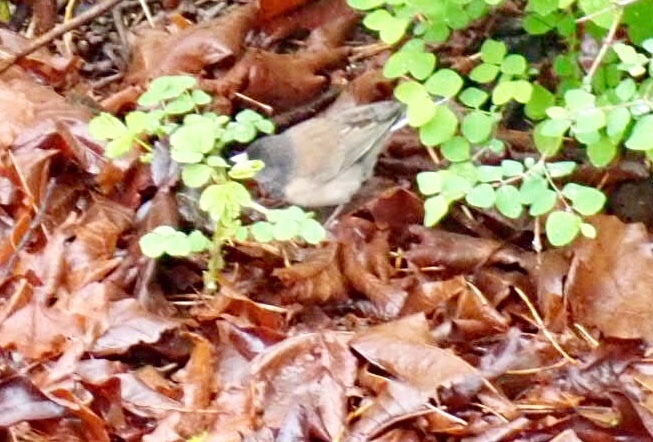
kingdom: Animalia
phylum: Chordata
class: Aves
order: Passeriformes
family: Passerellidae
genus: Junco
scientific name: Junco hyemalis
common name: Dark-eyed junco
